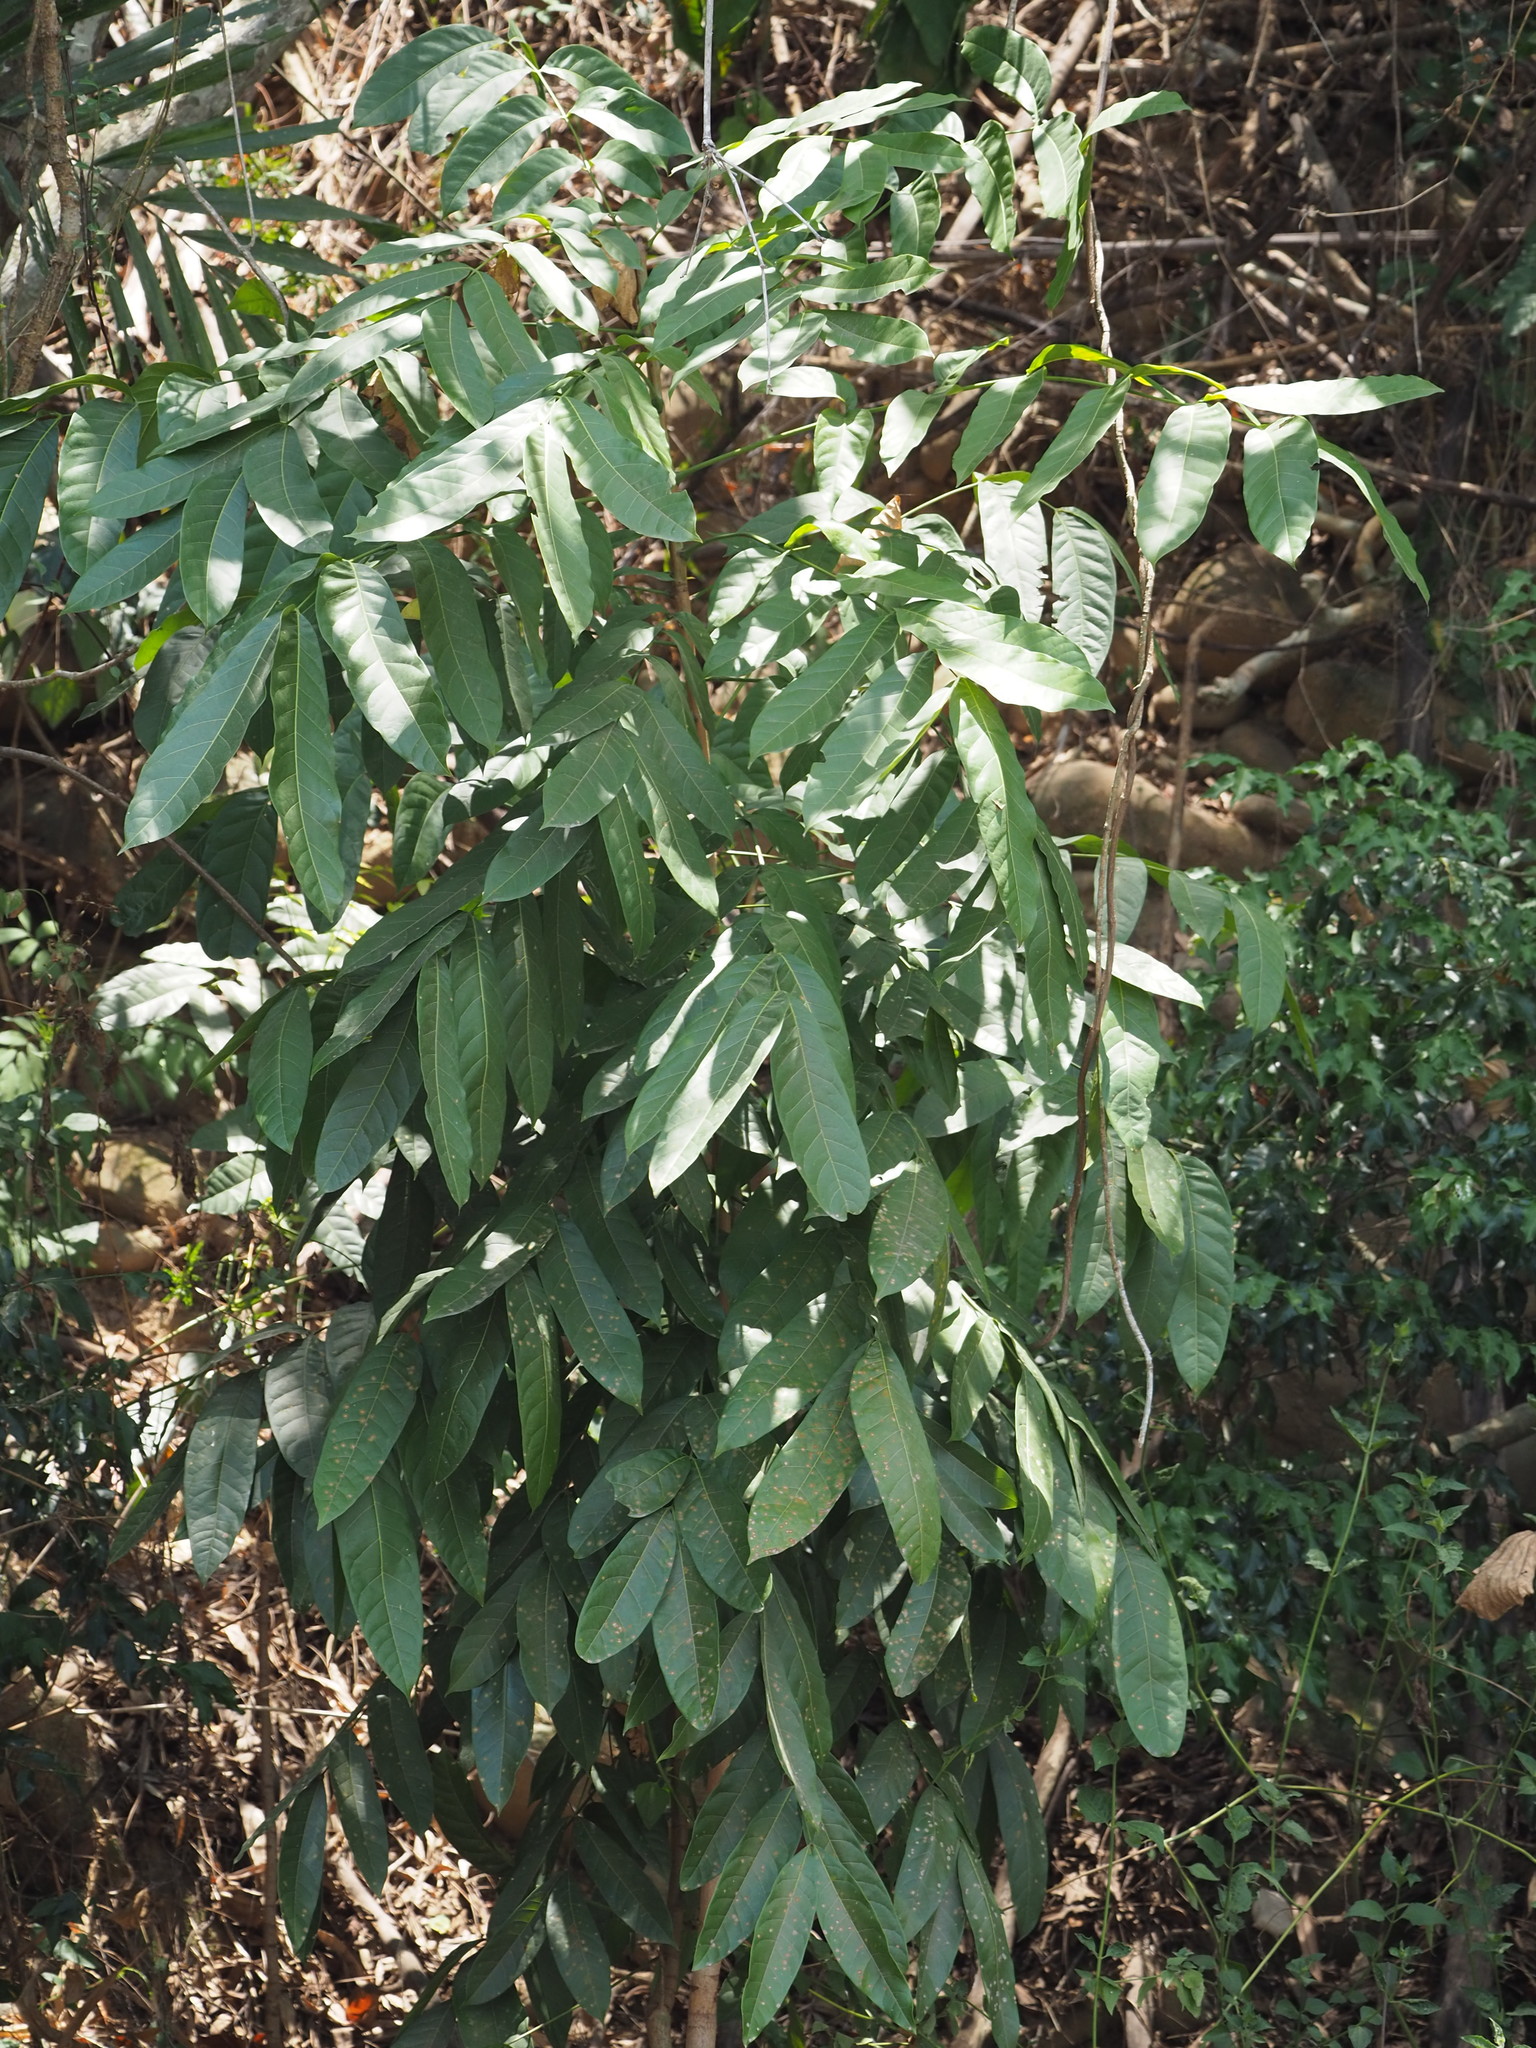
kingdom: Plantae
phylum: Tracheophyta
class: Magnoliopsida
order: Sapindales
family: Sapindaceae
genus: Dimocarpus
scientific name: Dimocarpus longan
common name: Longan
